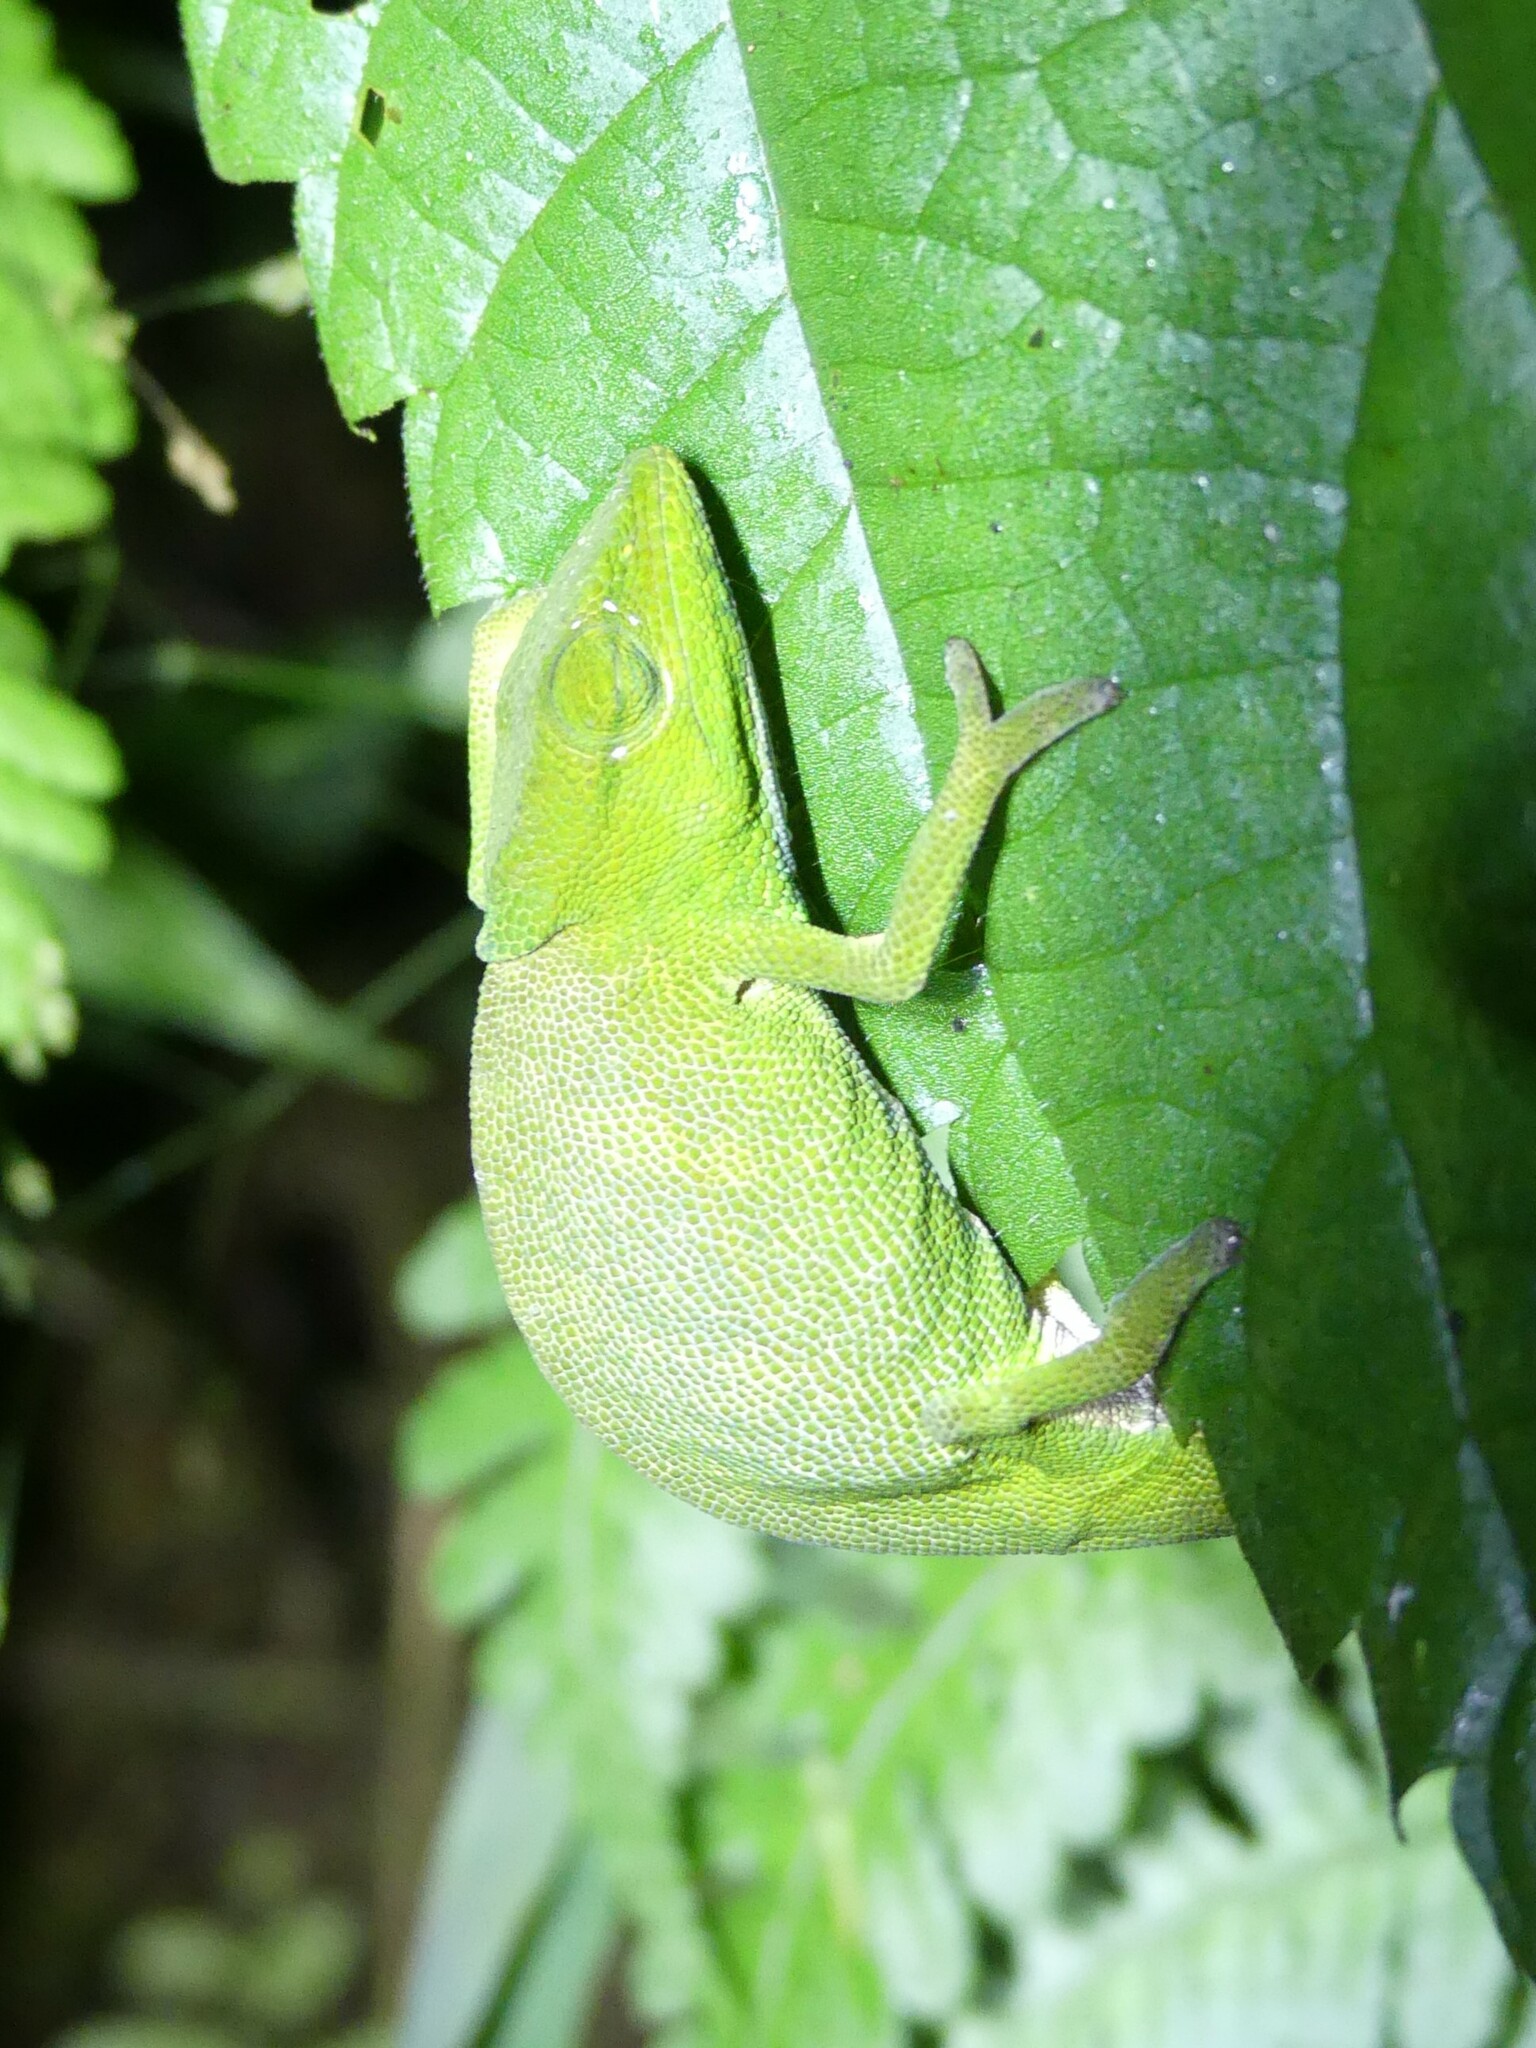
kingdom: Animalia
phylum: Chordata
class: Squamata
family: Chamaeleonidae
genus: Calumma
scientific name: Calumma glawi
